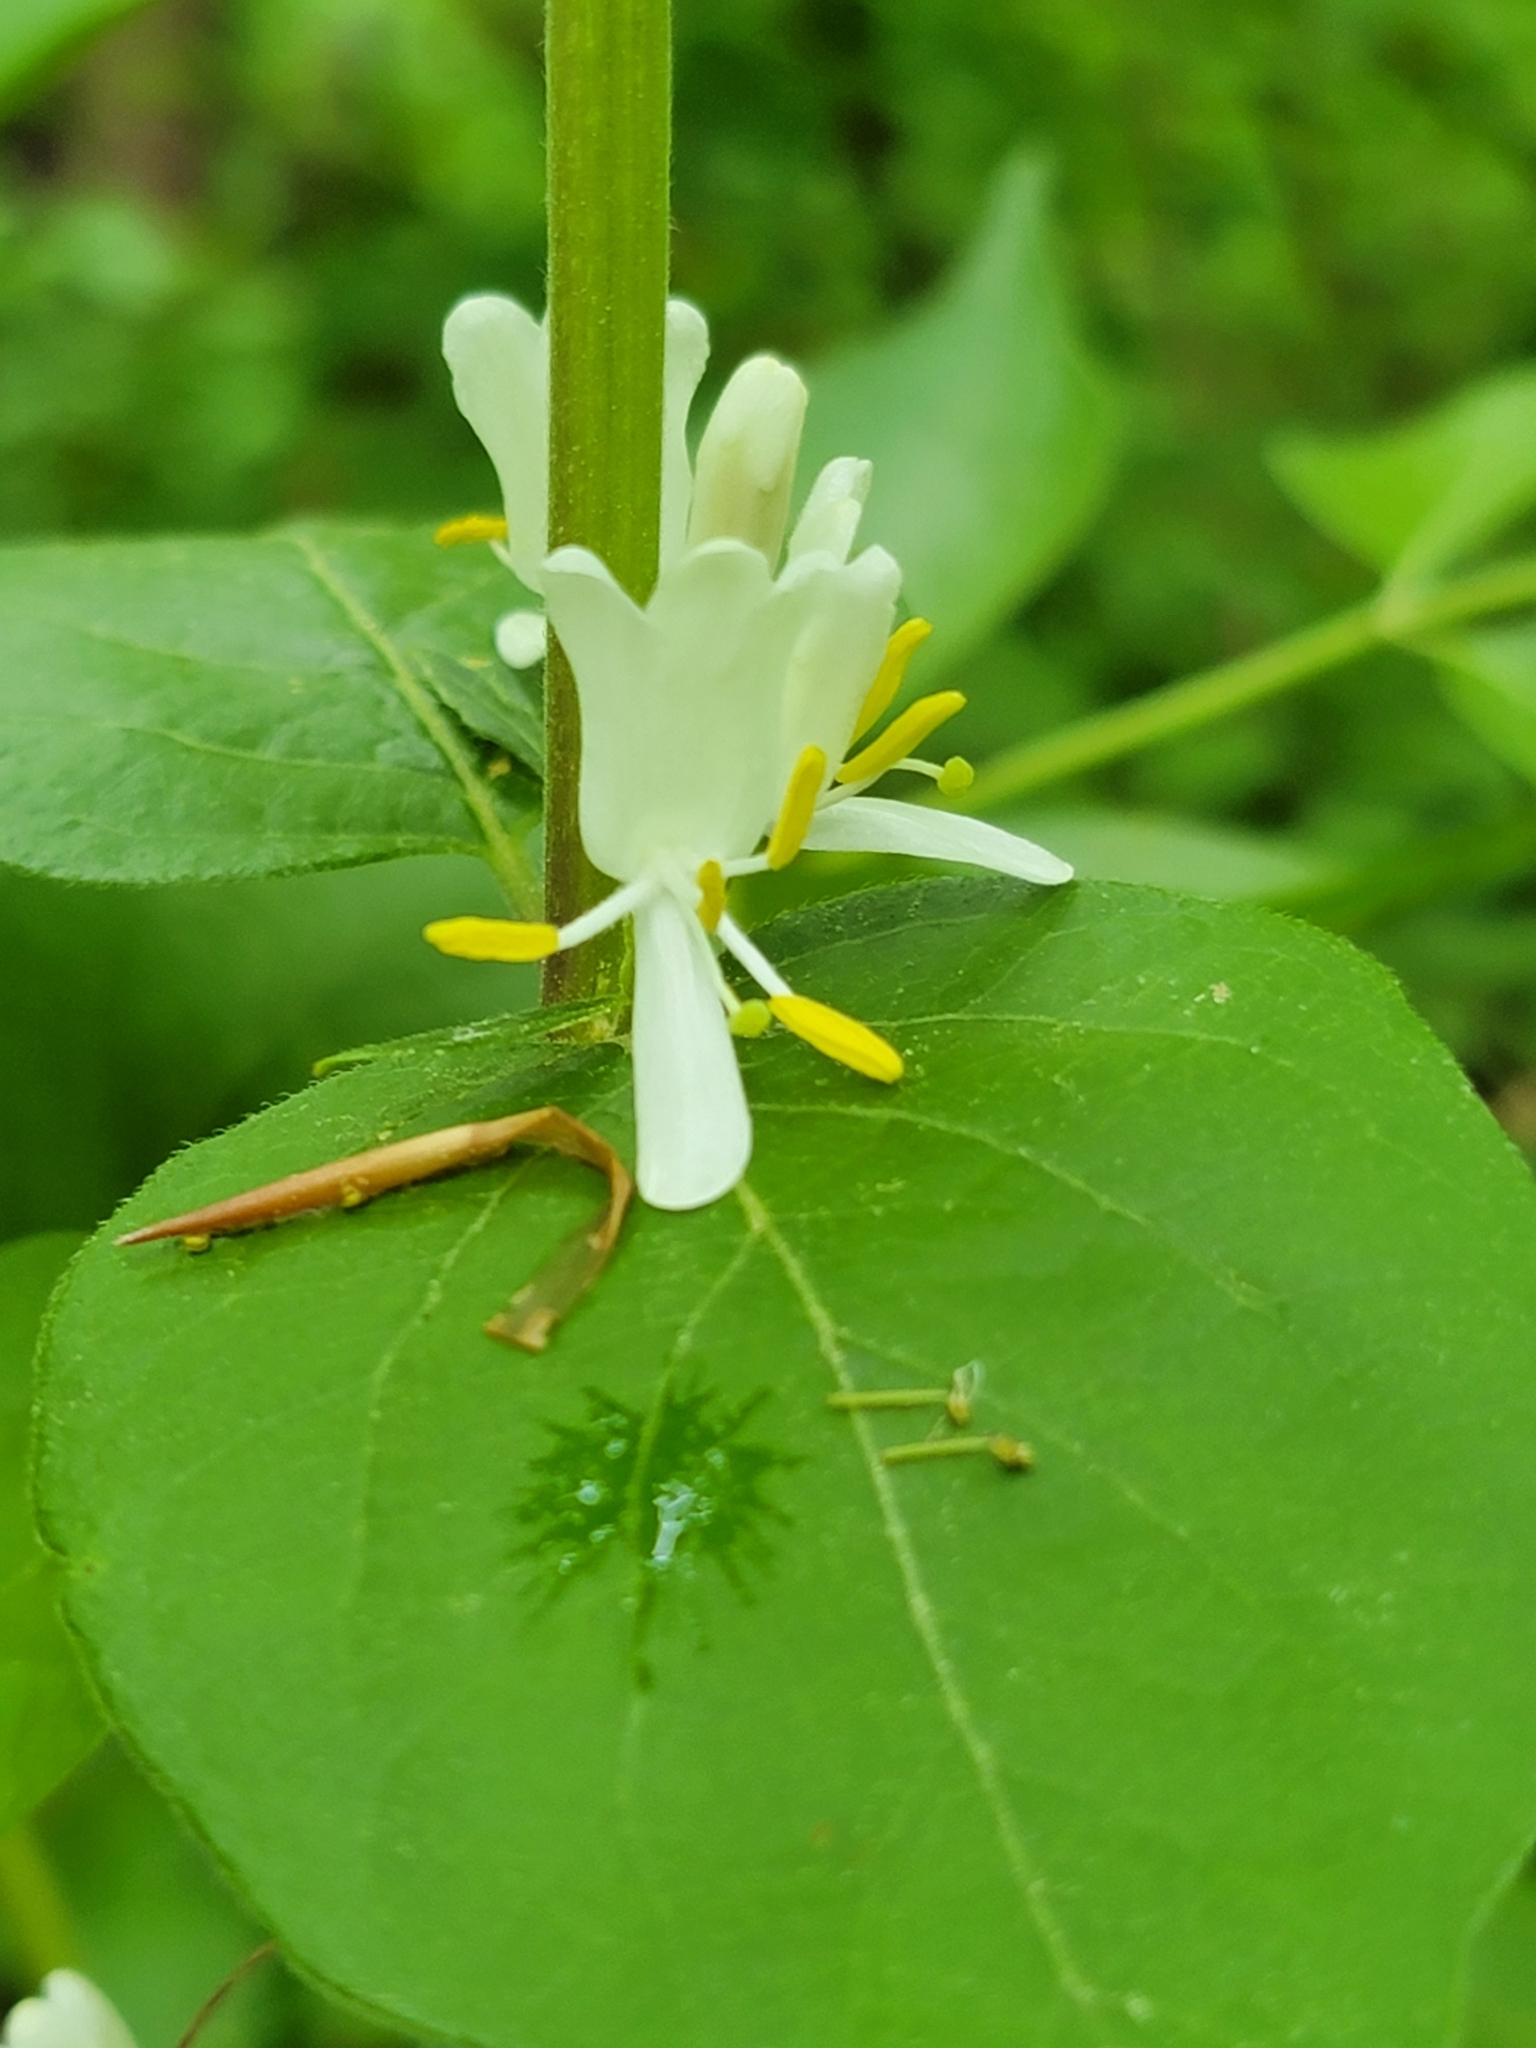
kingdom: Plantae
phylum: Tracheophyta
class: Magnoliopsida
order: Dipsacales
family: Caprifoliaceae
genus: Lonicera
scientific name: Lonicera maackii
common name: Amur honeysuckle
